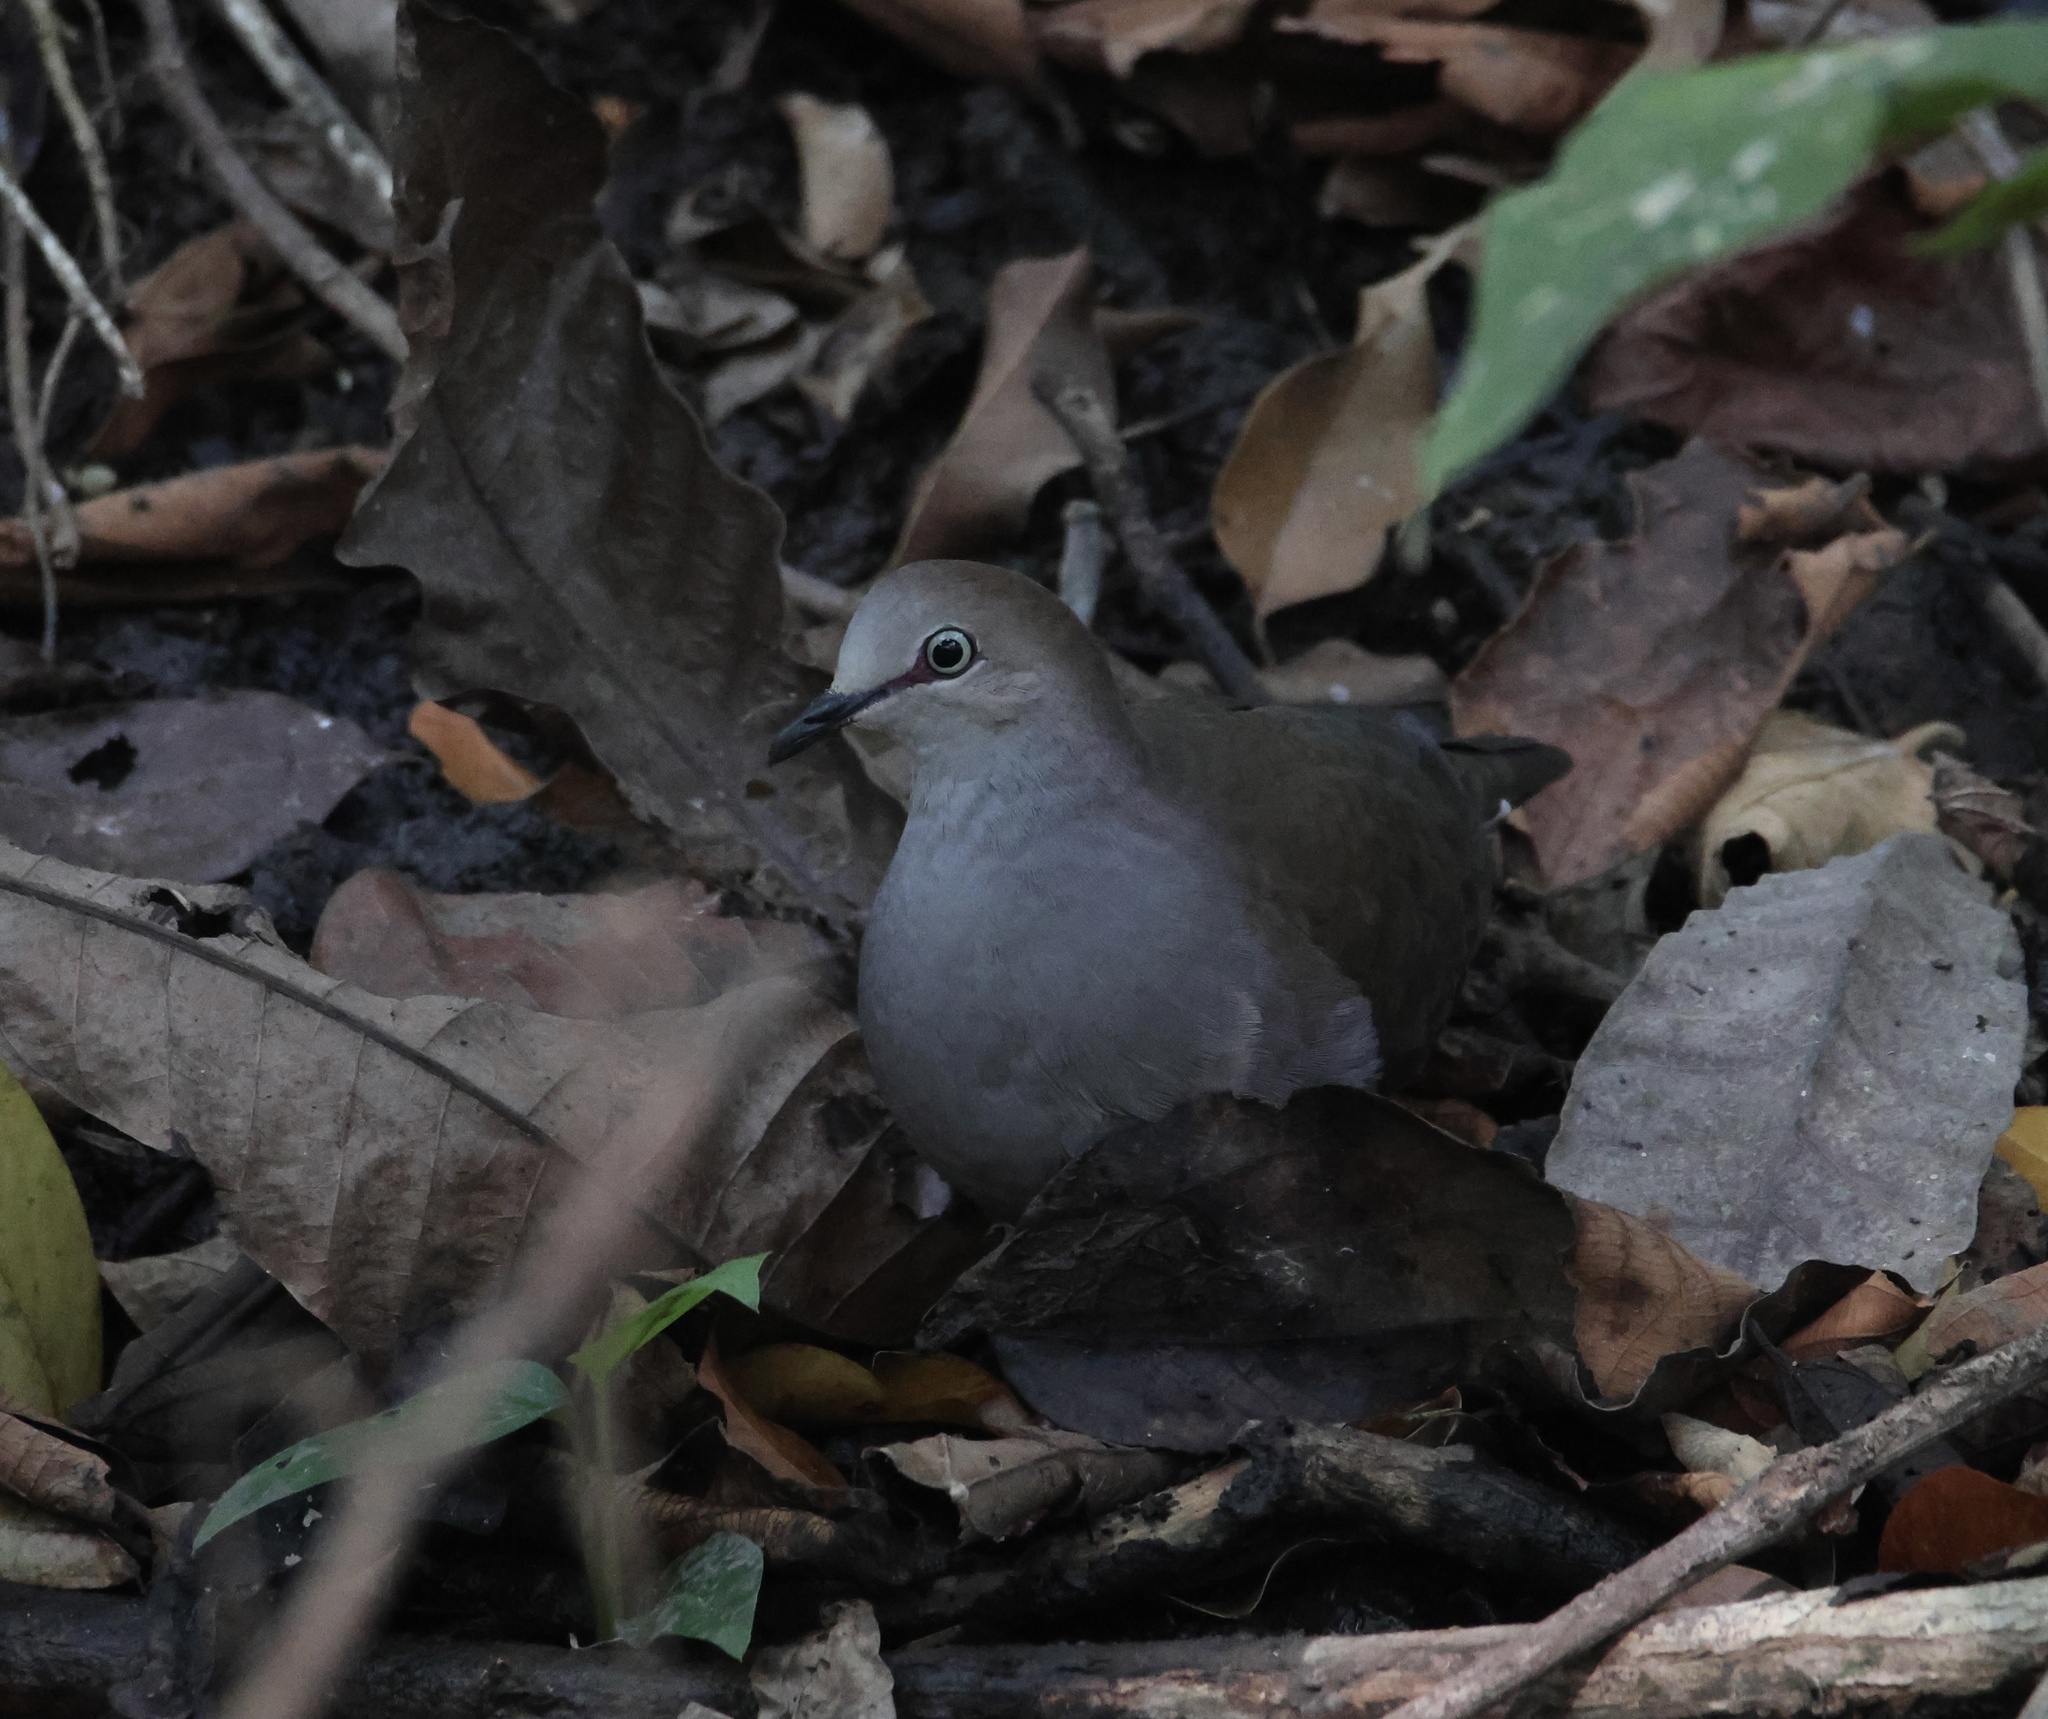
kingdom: Animalia
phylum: Chordata
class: Aves
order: Columbiformes
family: Columbidae
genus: Leptotila
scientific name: Leptotila cassinii
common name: Grey-chested dove
